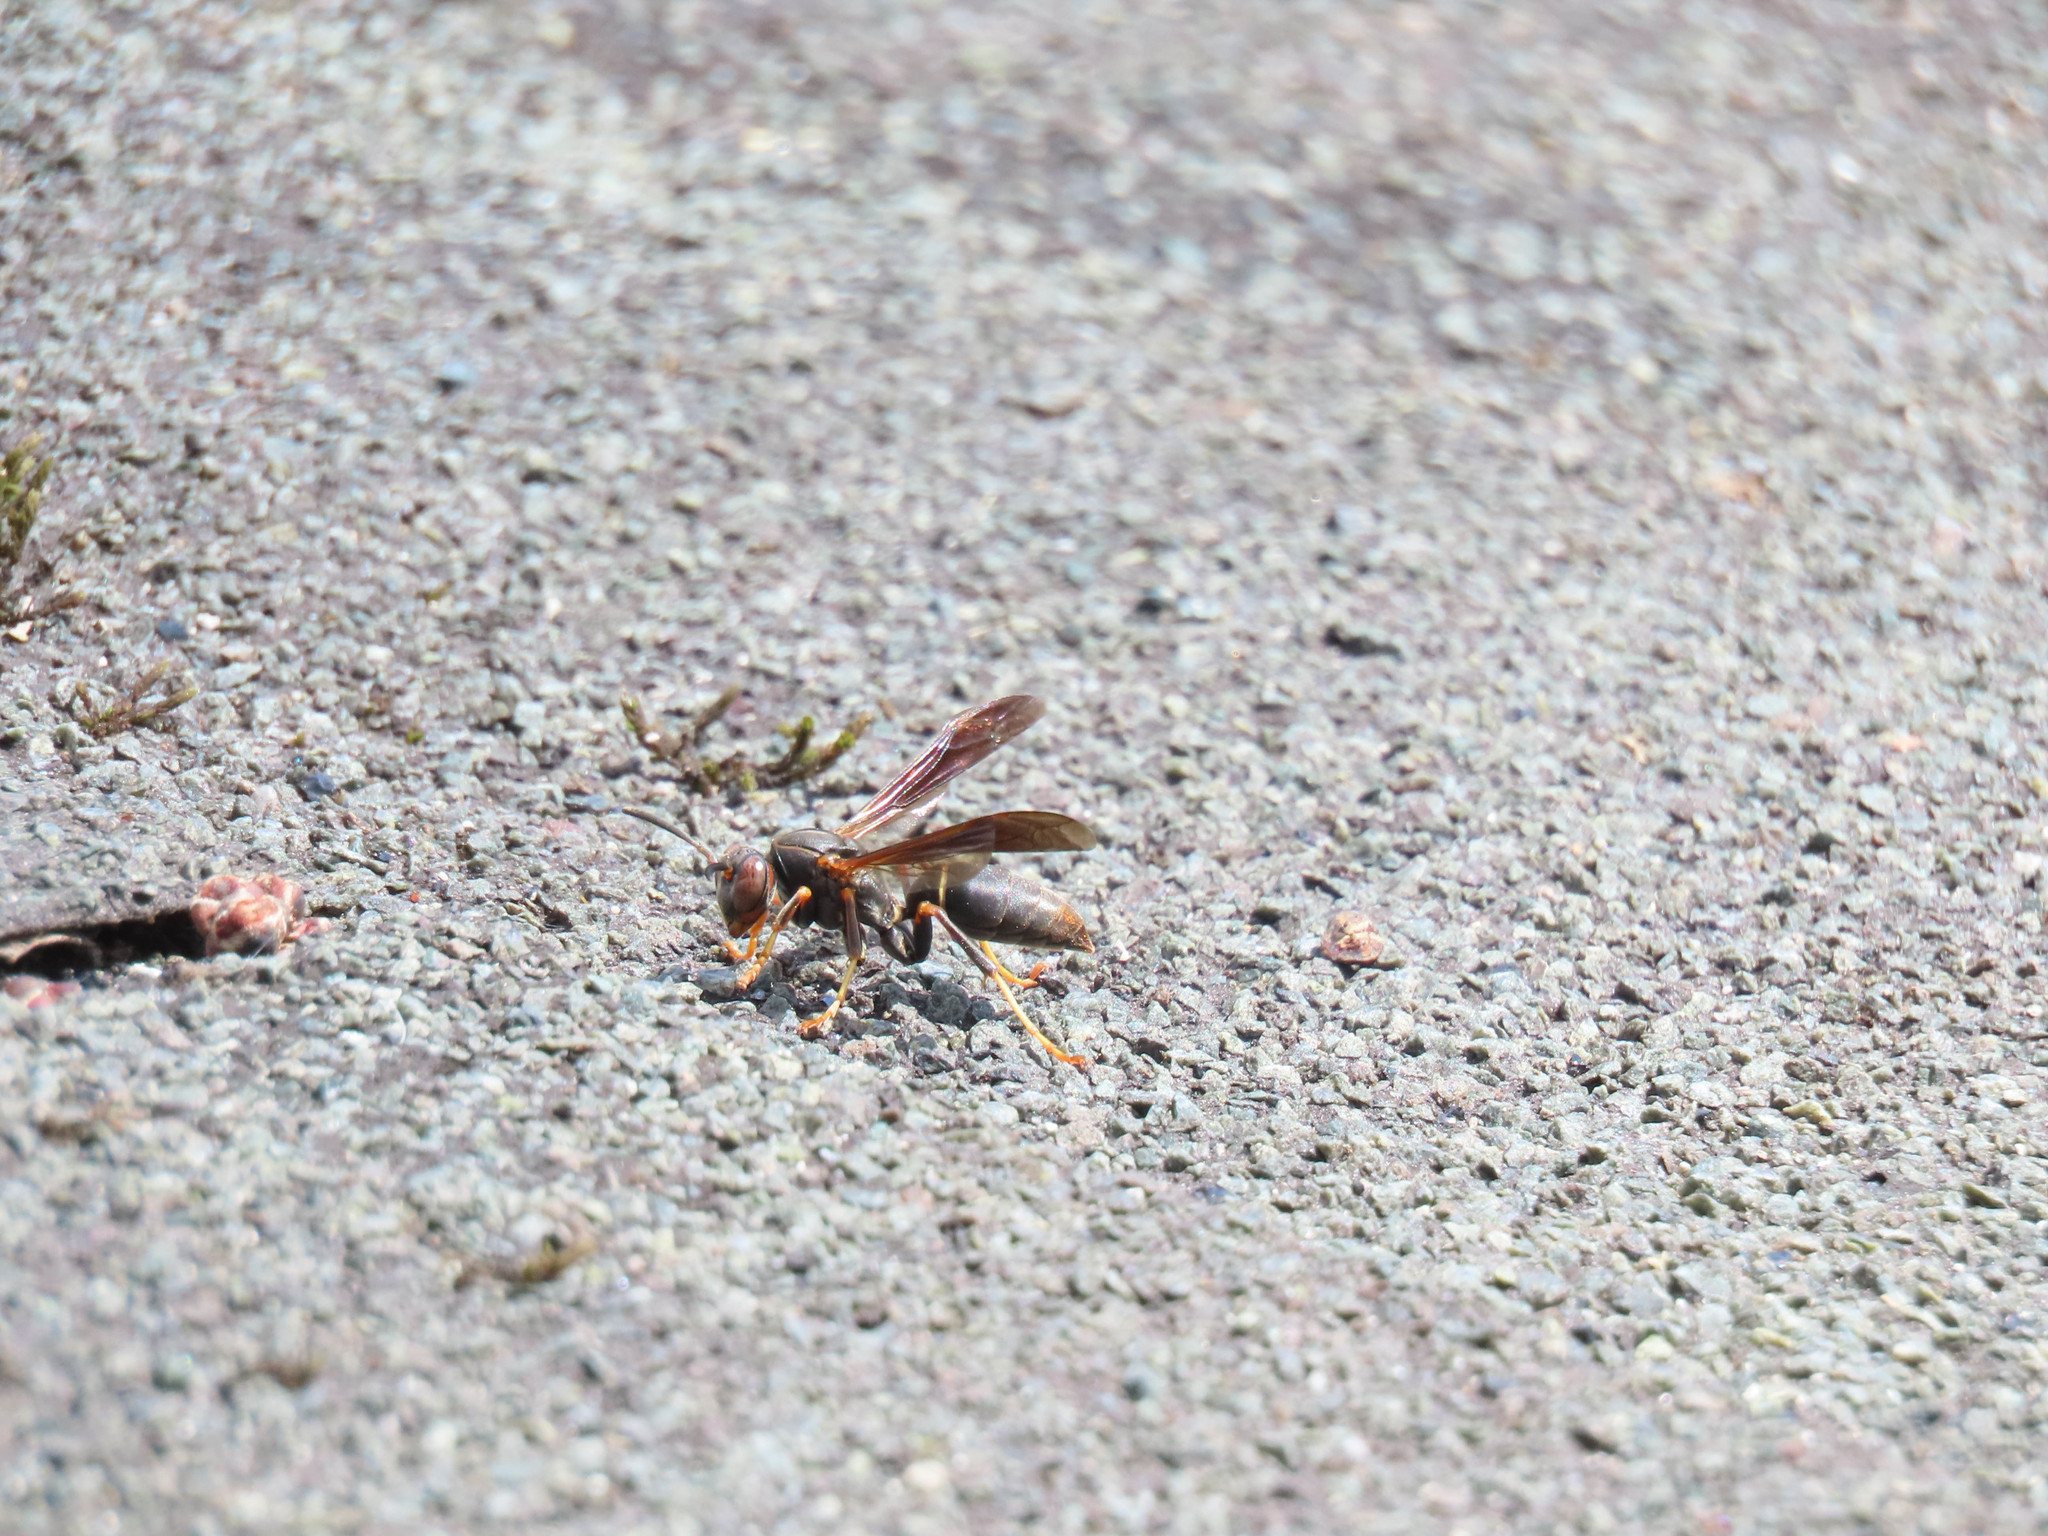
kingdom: Animalia
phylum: Arthropoda
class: Insecta
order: Hymenoptera
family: Eumenidae
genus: Polistes
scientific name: Polistes fuscatus
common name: Dark paper wasp
